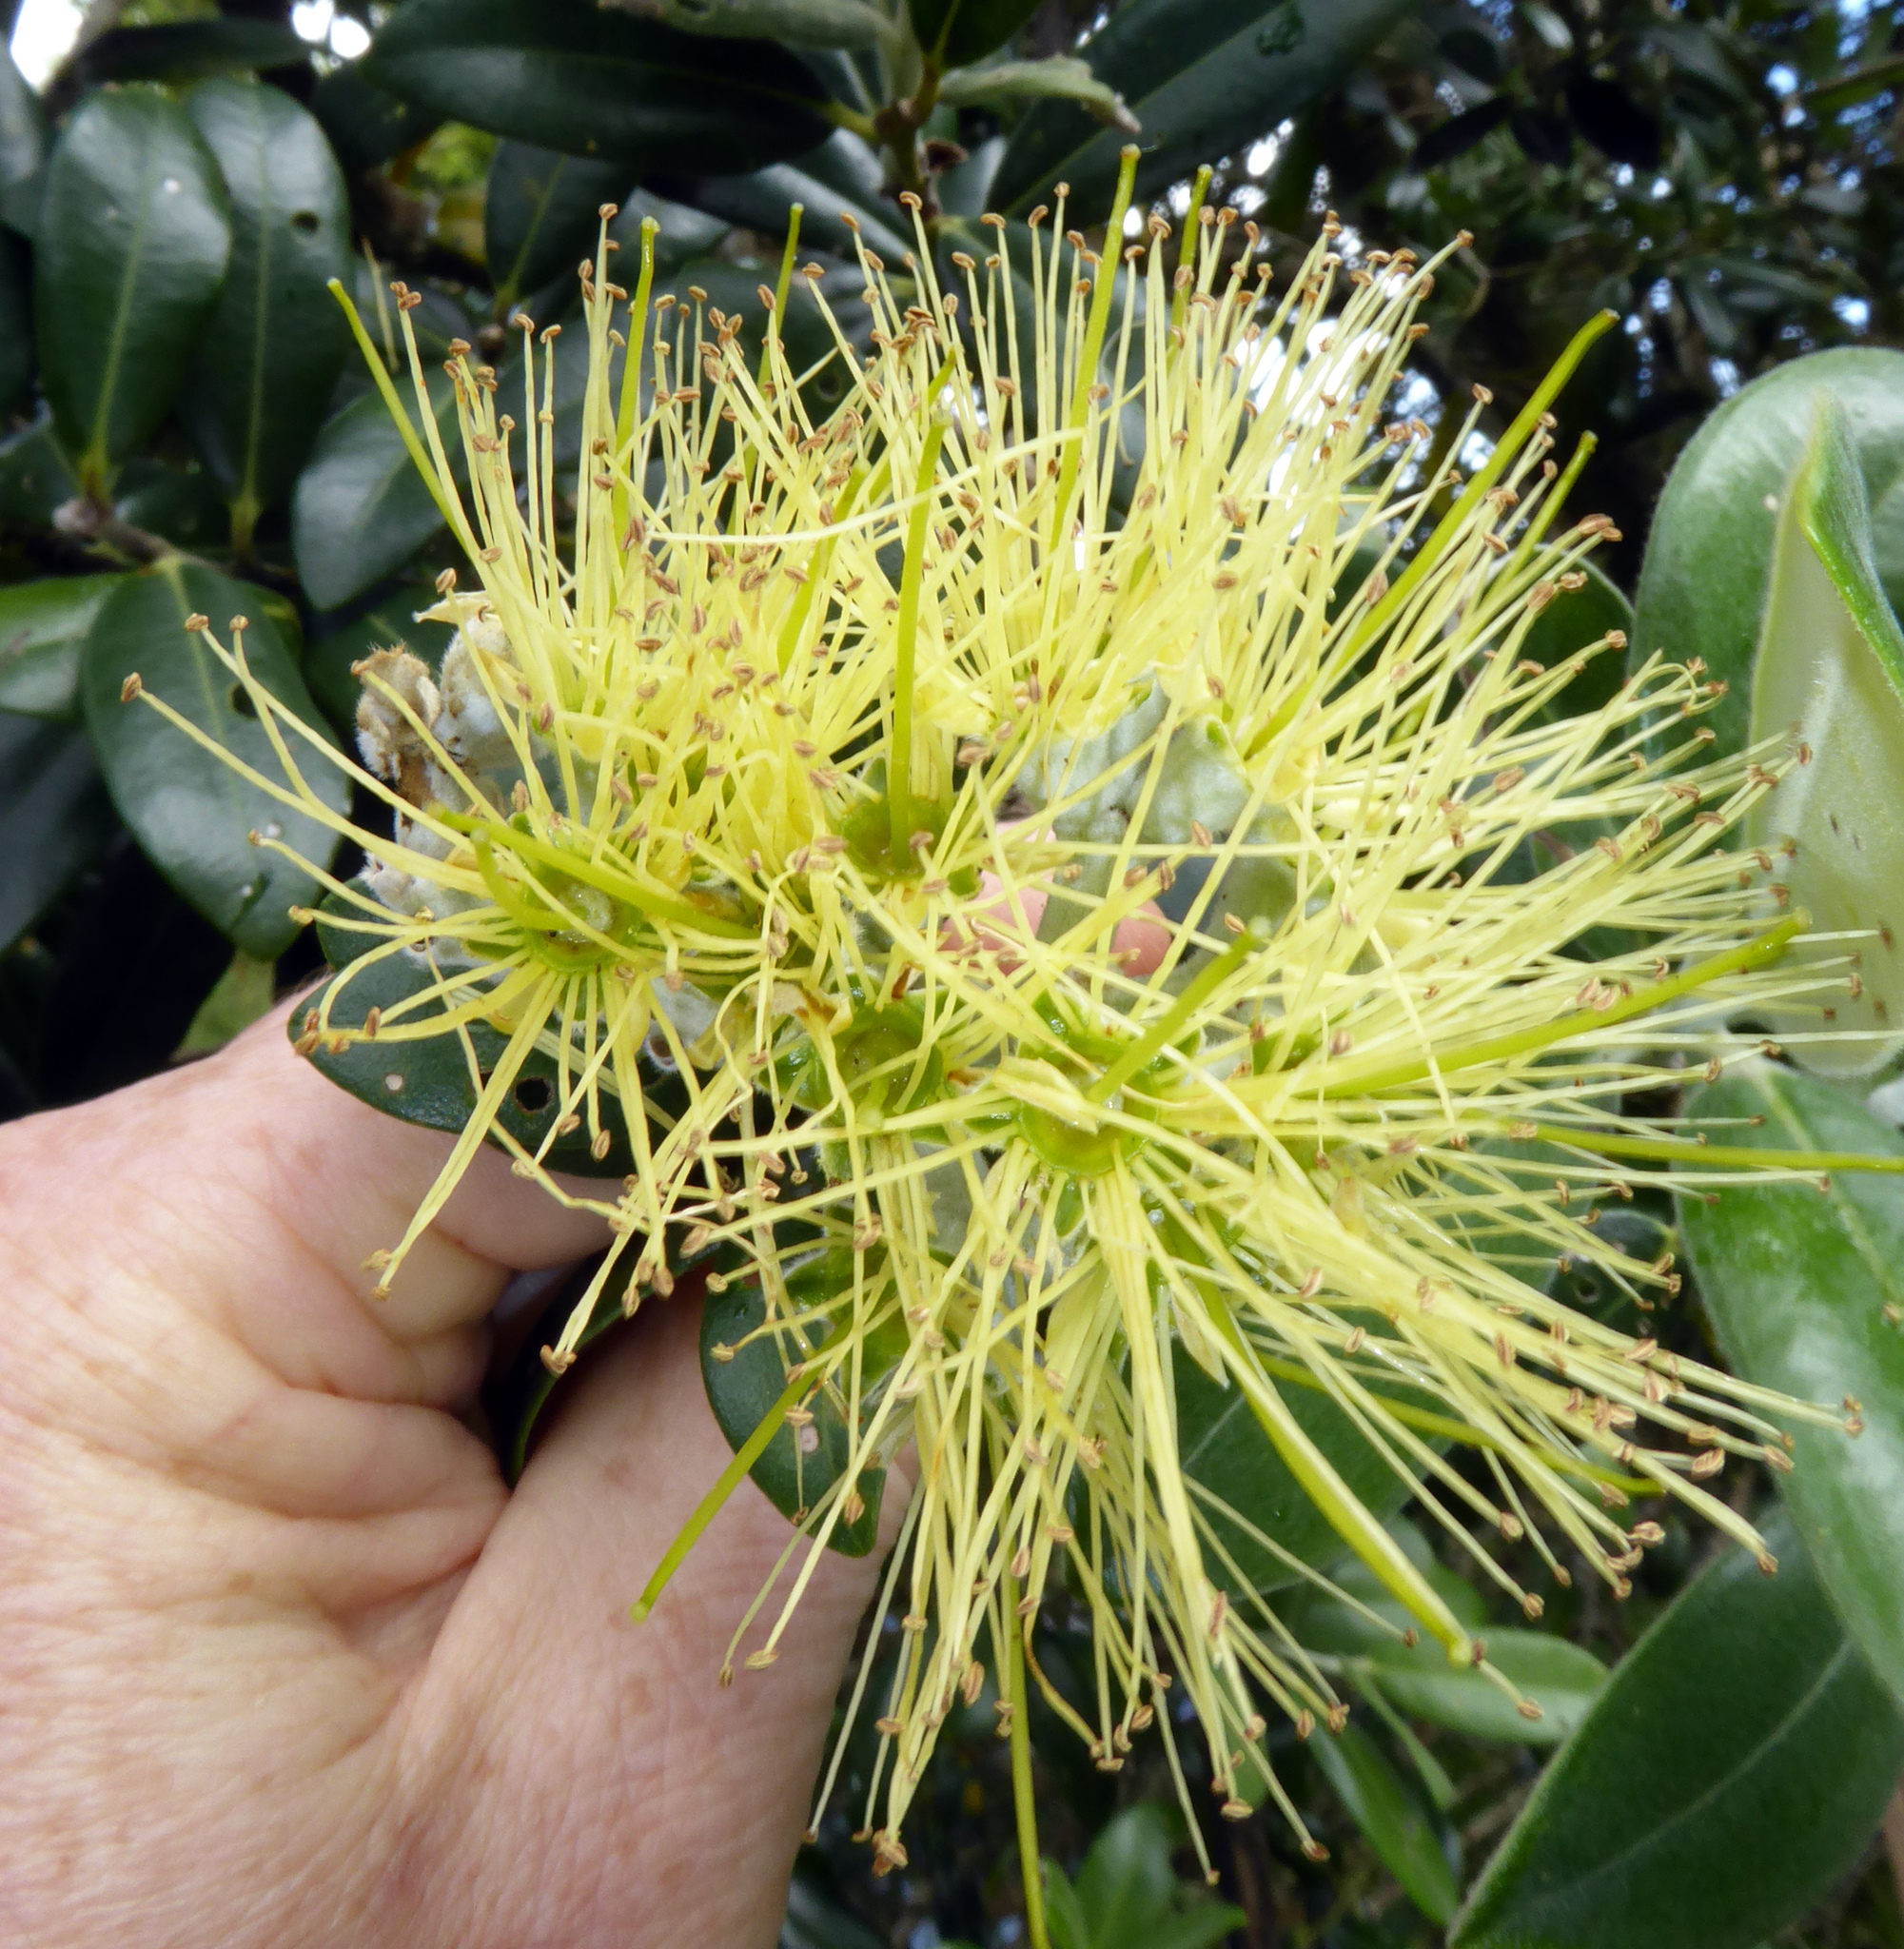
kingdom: Plantae
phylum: Tracheophyta
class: Magnoliopsida
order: Myrtales
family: Myrtaceae
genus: Metrosideros
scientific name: Metrosideros excelsa
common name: New zealand christmastree
